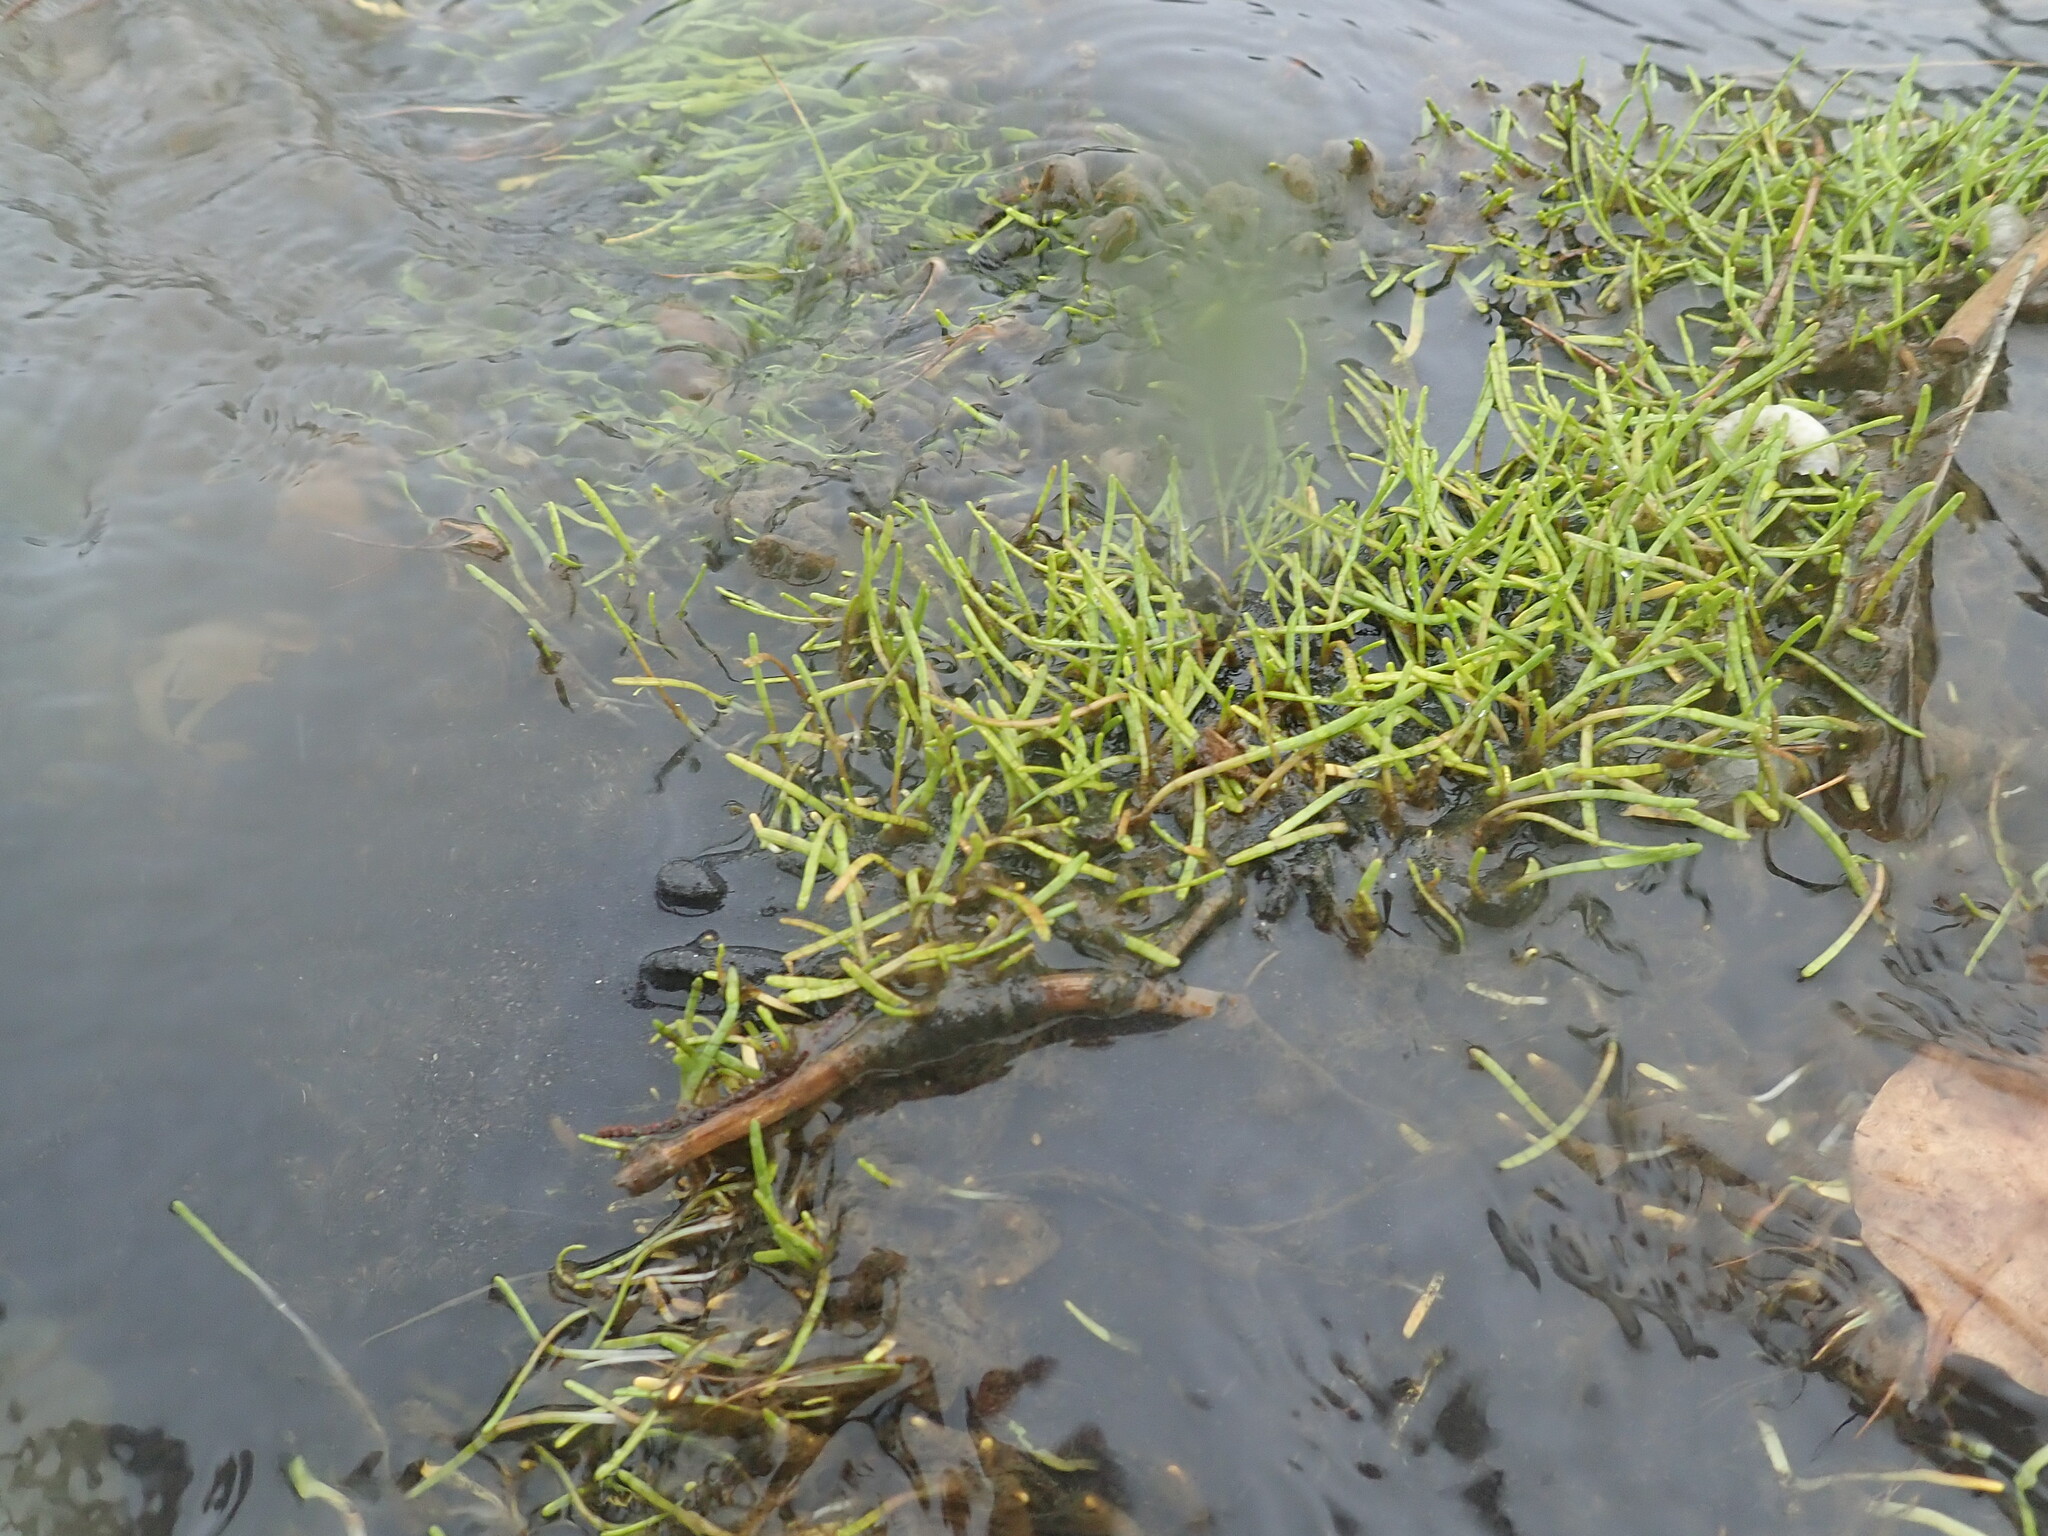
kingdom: Plantae
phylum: Tracheophyta
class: Magnoliopsida
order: Apiales
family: Apiaceae
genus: Lilaeopsis
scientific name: Lilaeopsis novae-zelandiae
